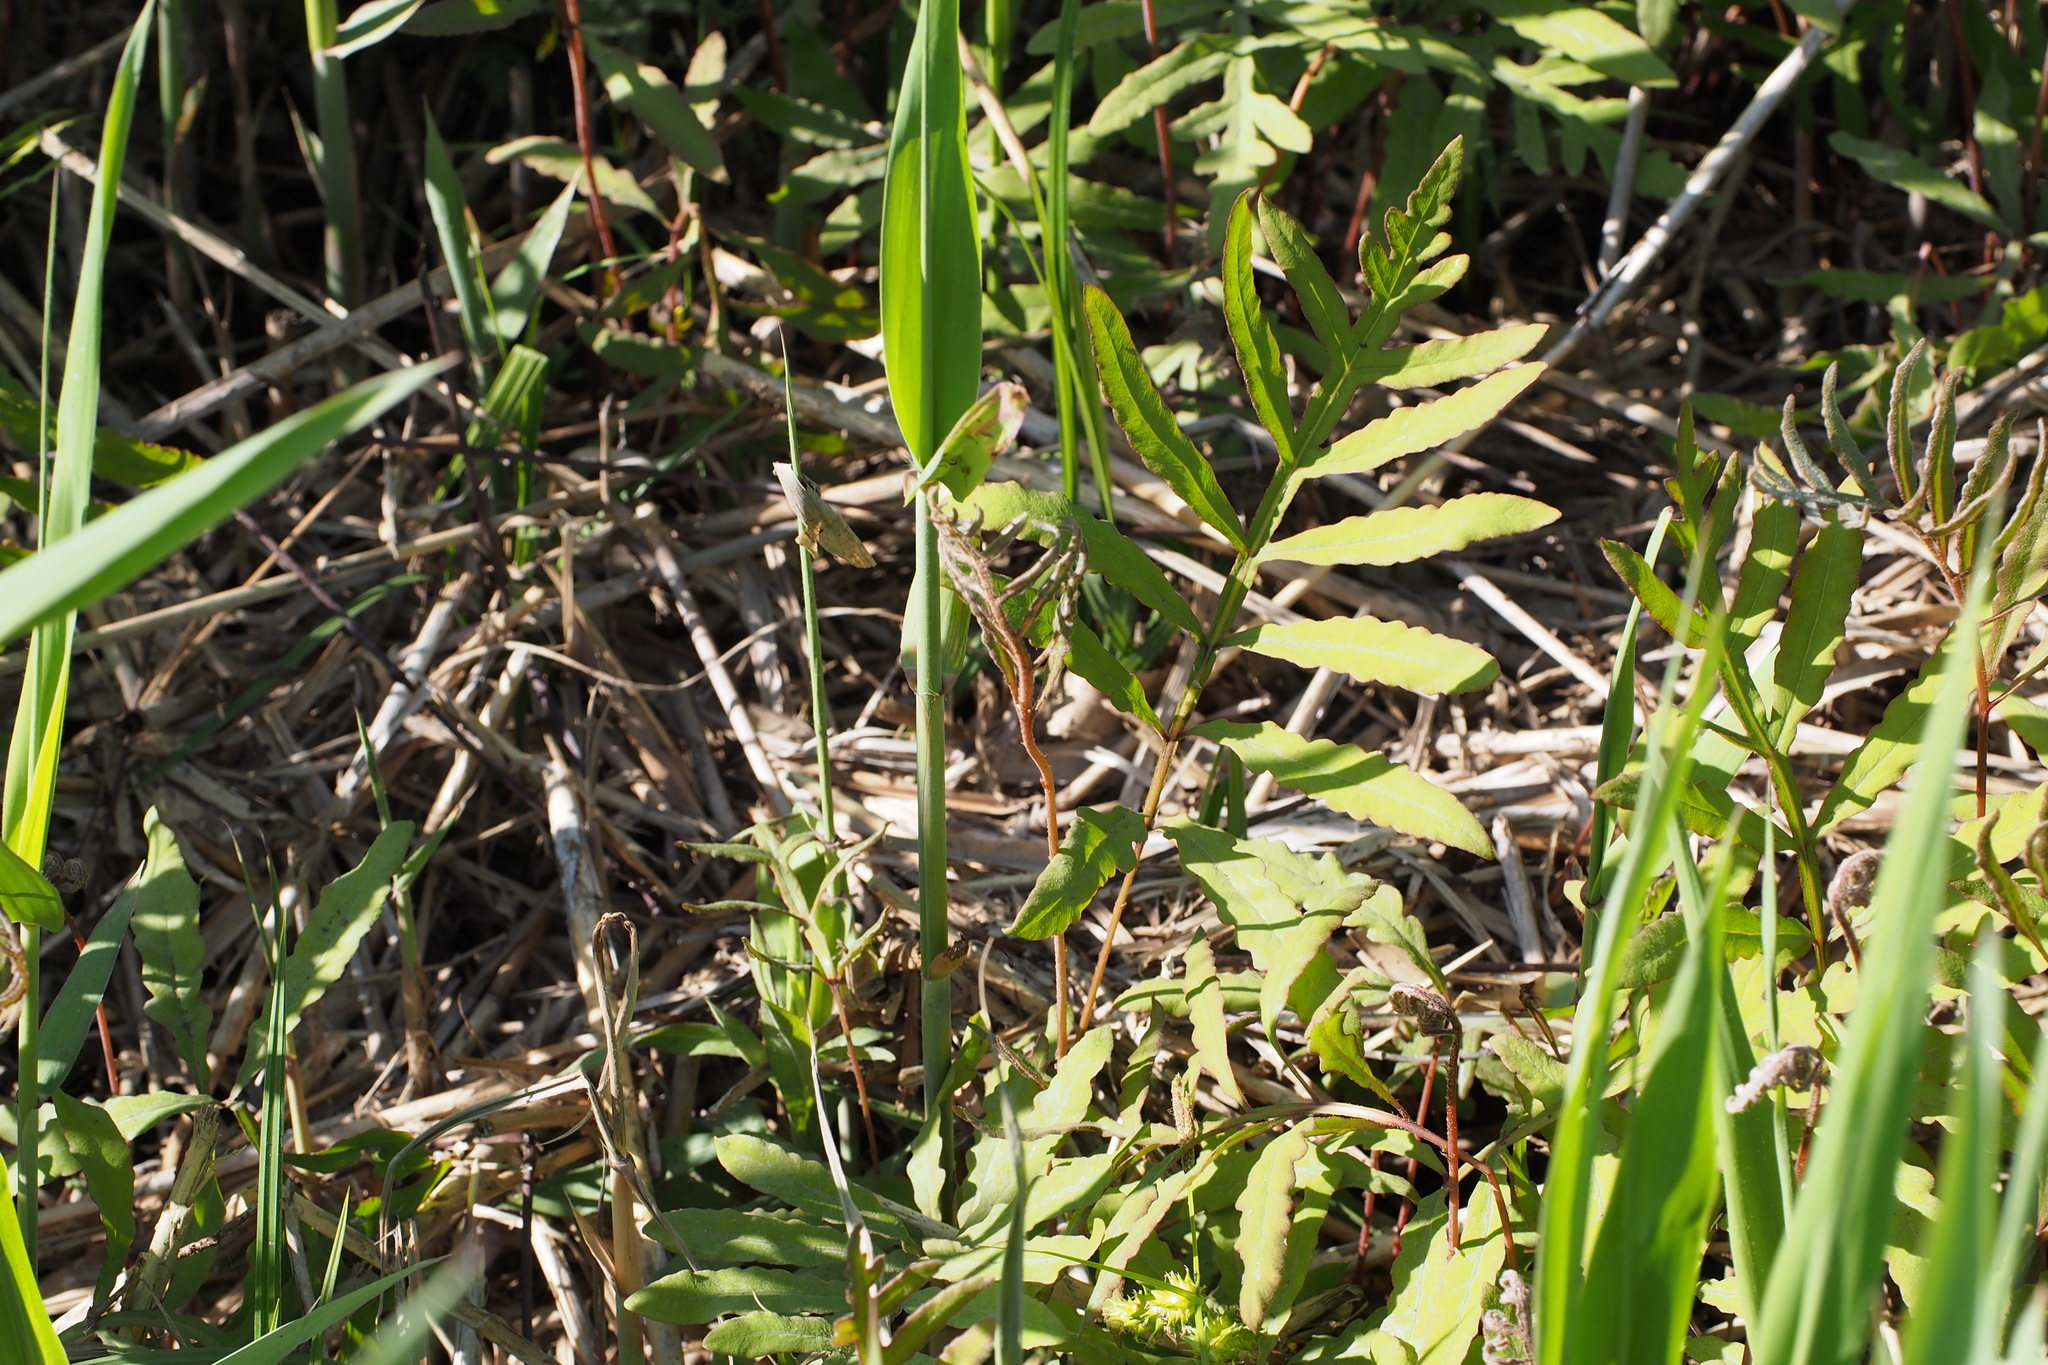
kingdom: Plantae
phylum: Tracheophyta
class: Polypodiopsida
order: Polypodiales
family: Onocleaceae
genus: Onoclea
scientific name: Onoclea sensibilis
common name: Sensitive fern
